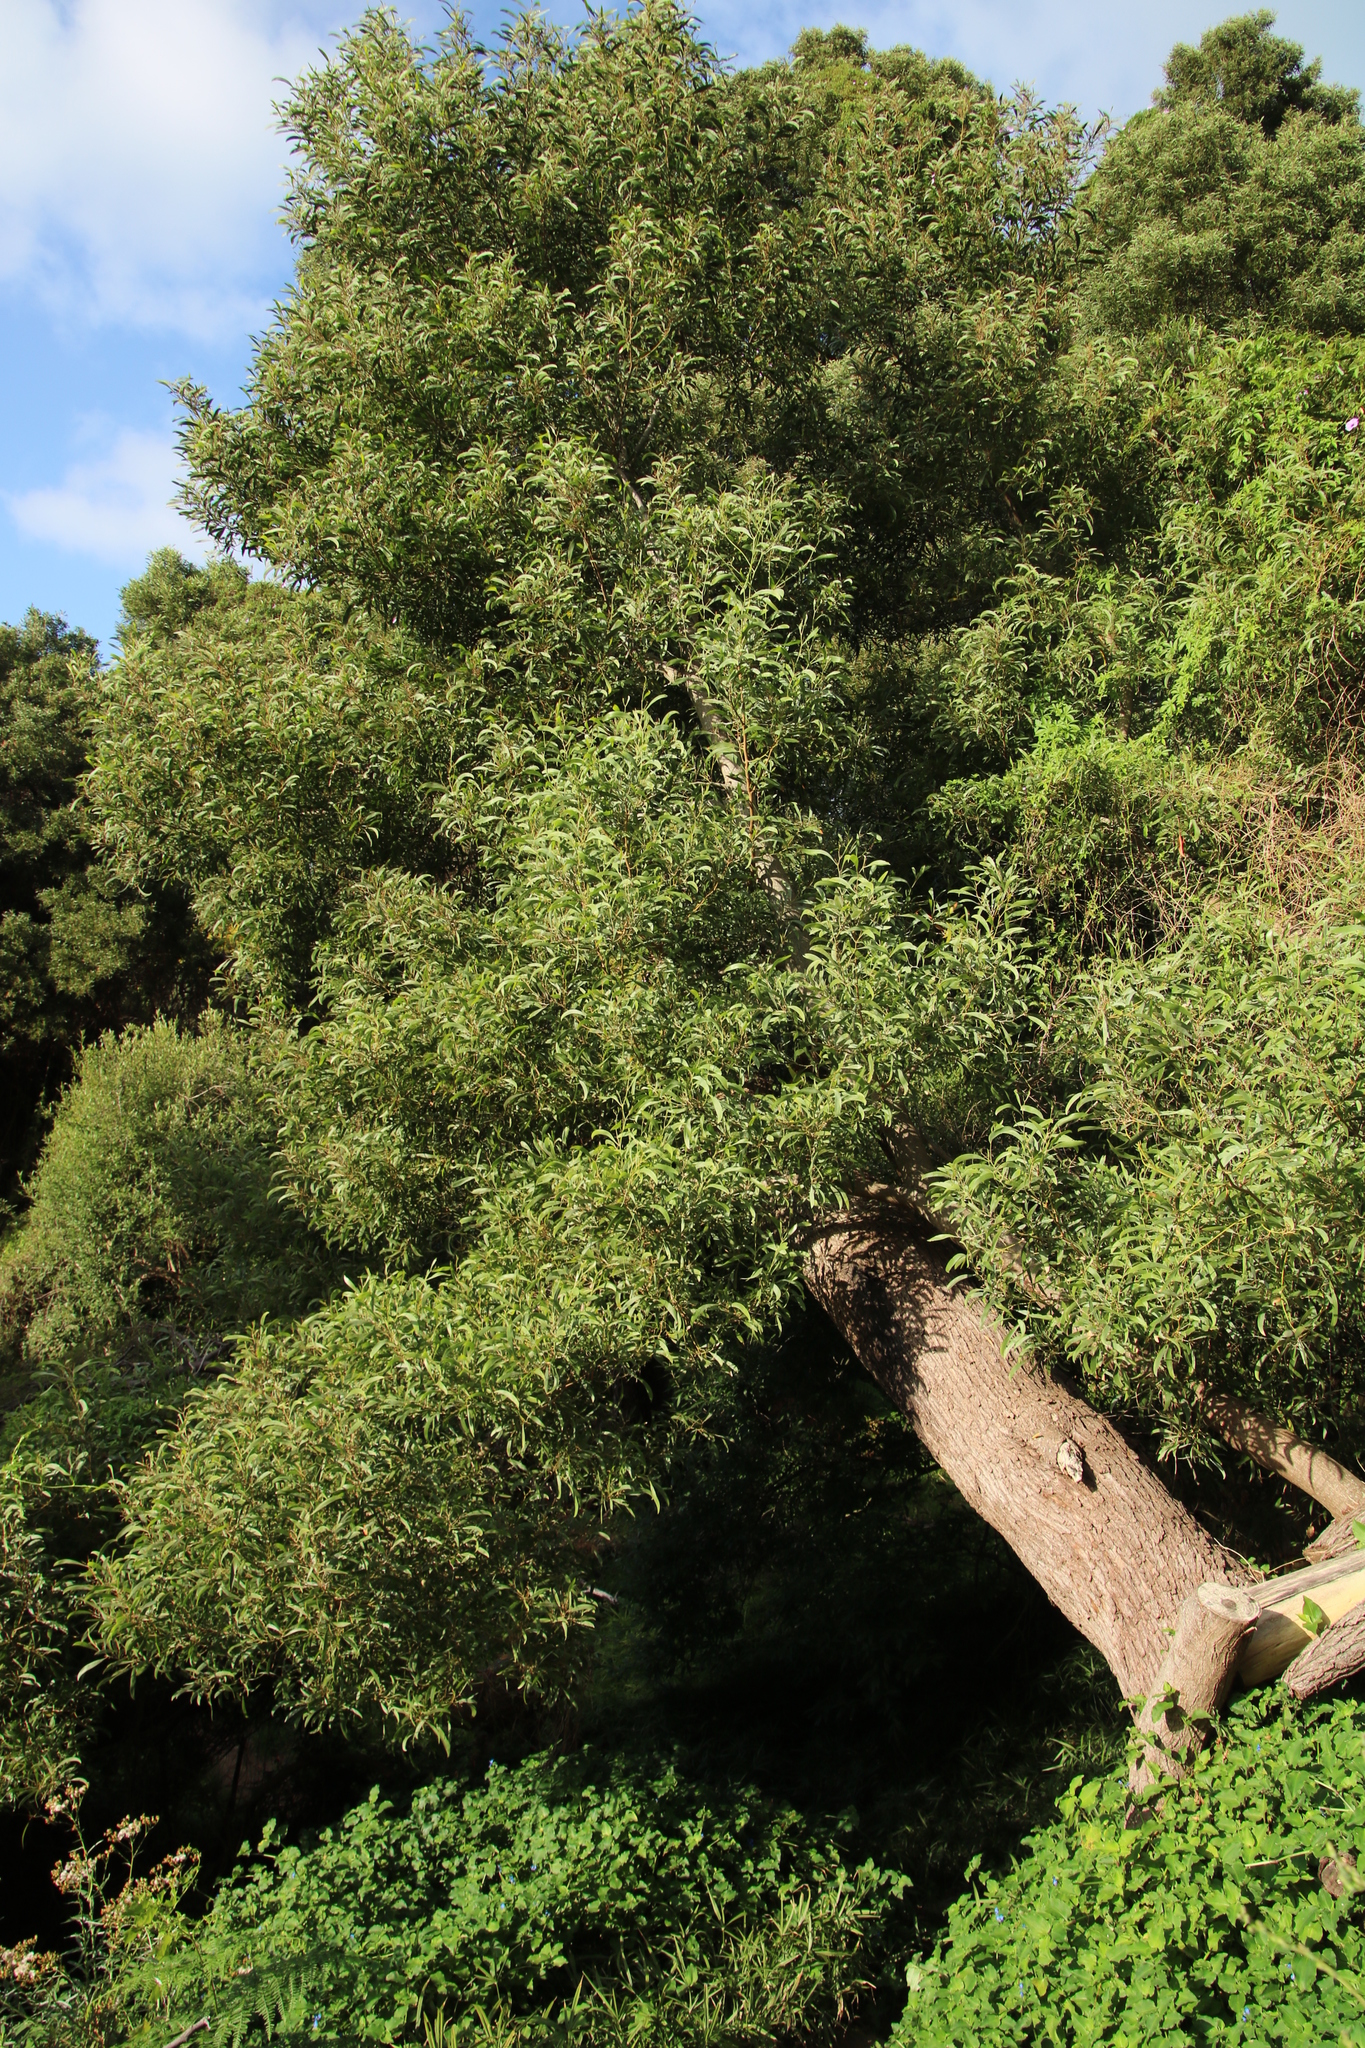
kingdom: Plantae
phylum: Tracheophyta
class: Magnoliopsida
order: Fabales
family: Fabaceae
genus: Acacia
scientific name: Acacia melanoxylon
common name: Blackwood
